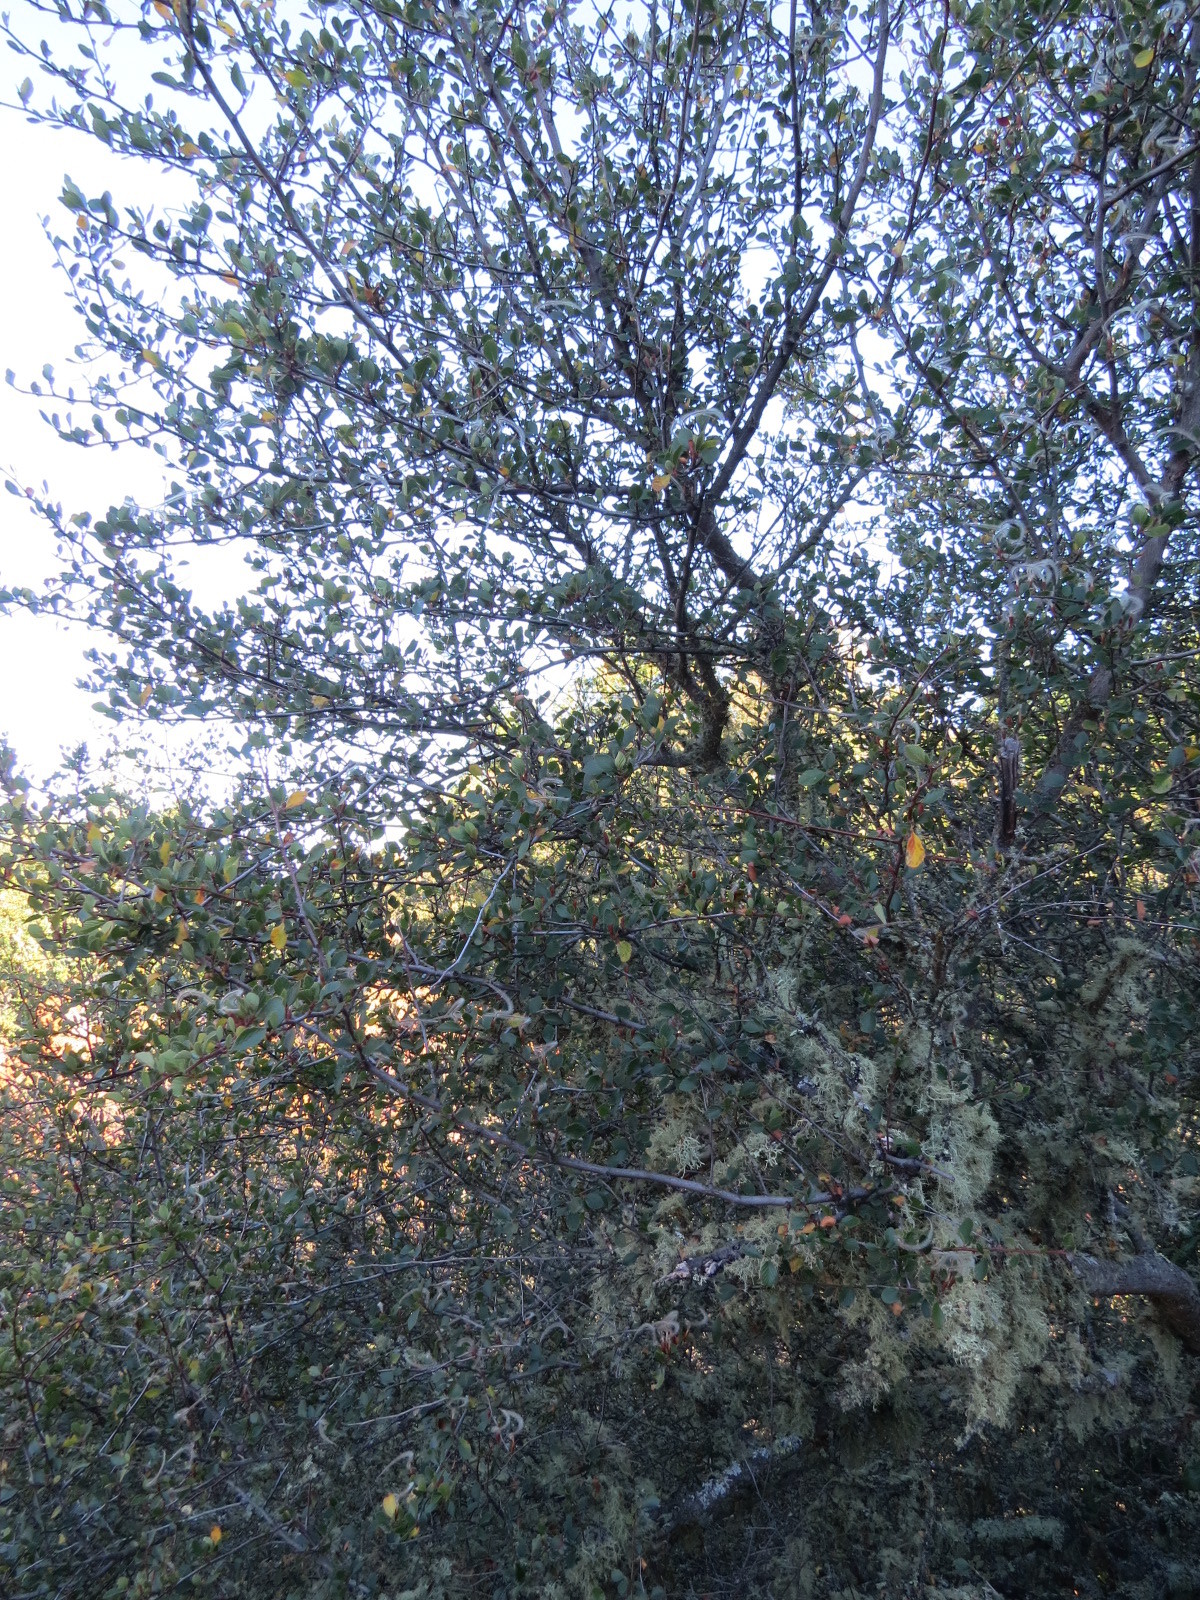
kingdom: Plantae
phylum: Tracheophyta
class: Magnoliopsida
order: Rosales
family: Rosaceae
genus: Cercocarpus
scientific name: Cercocarpus betuloides
